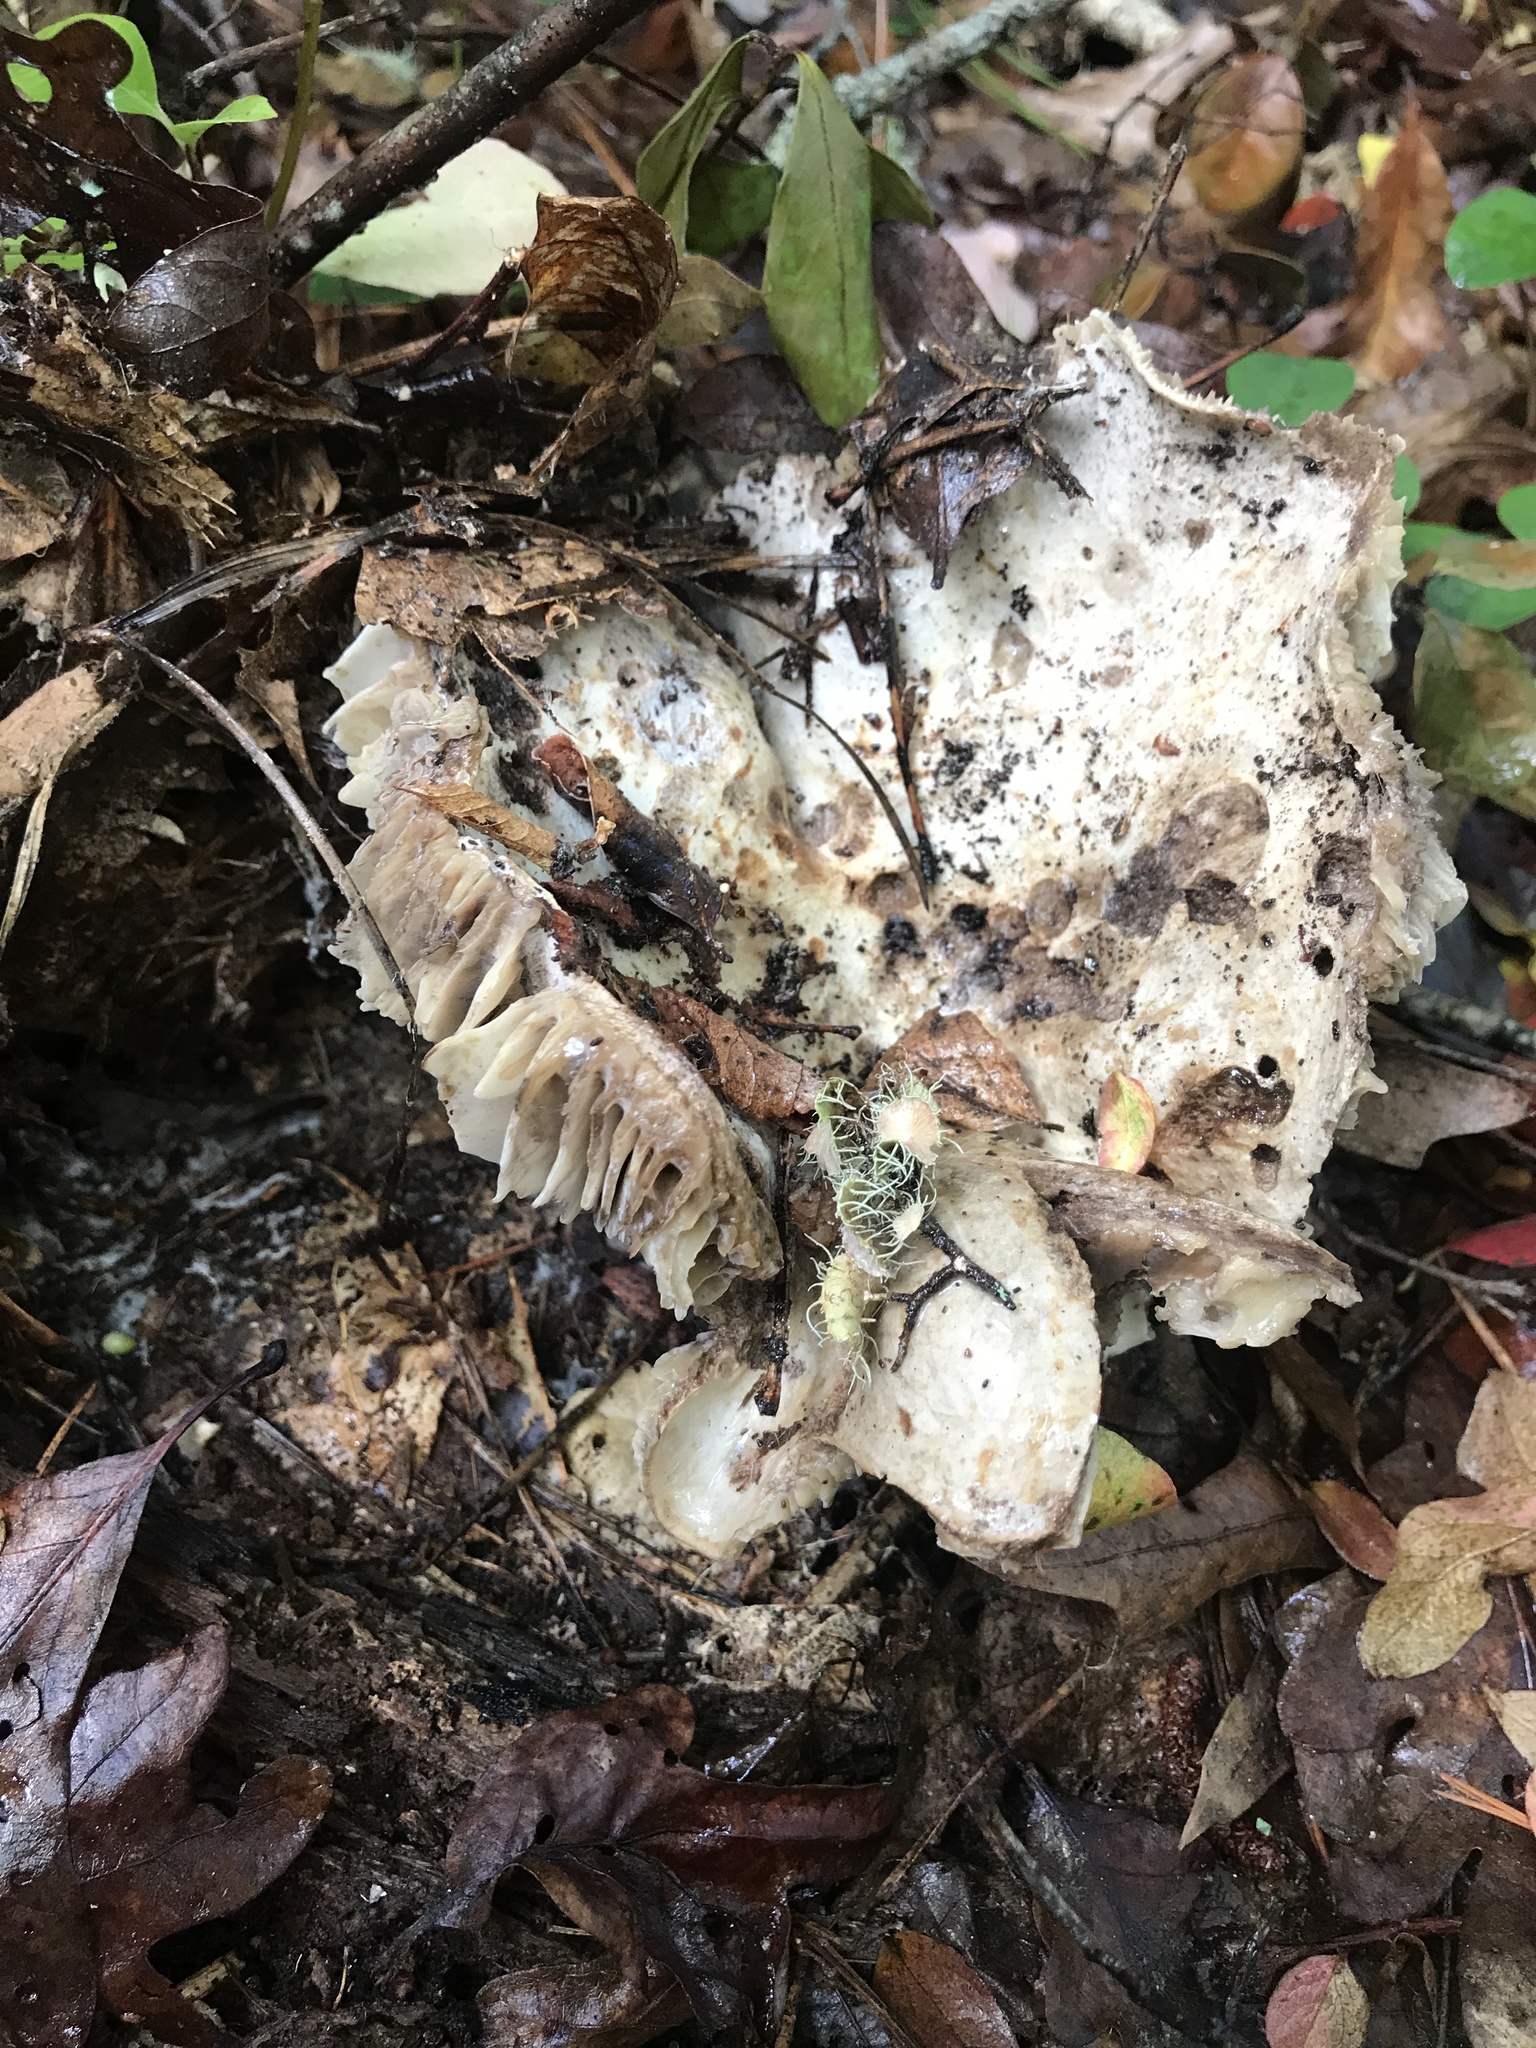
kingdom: Fungi
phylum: Basidiomycota
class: Agaricomycetes
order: Russulales
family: Russulaceae
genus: Russula
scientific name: Russula dissimulans
